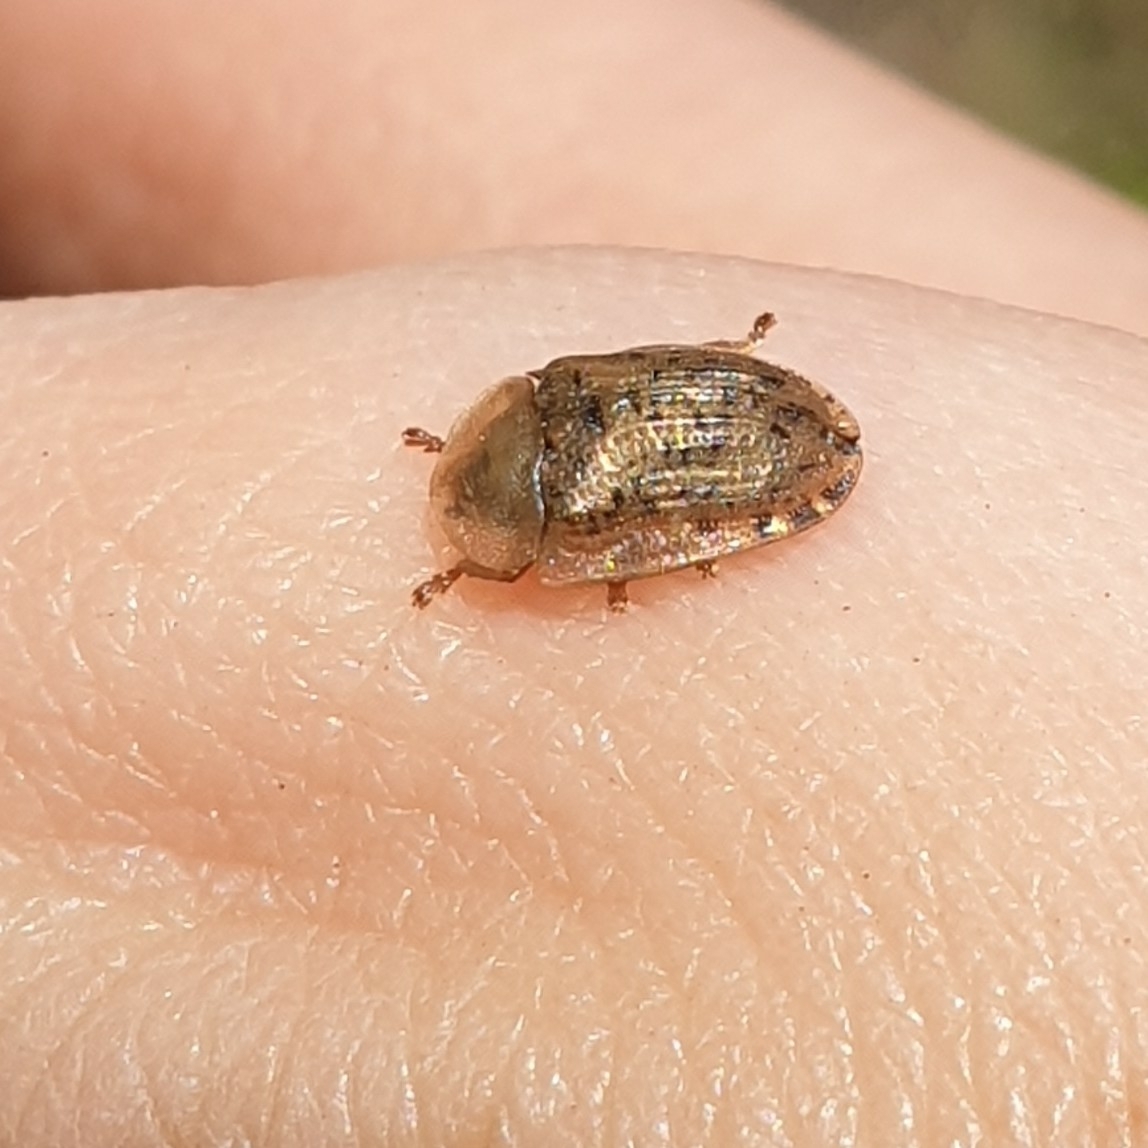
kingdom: Animalia
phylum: Arthropoda
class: Insecta
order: Coleoptera
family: Chrysomelidae
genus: Cassida
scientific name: Cassida nebulosa
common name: Beet tortoise beetle
